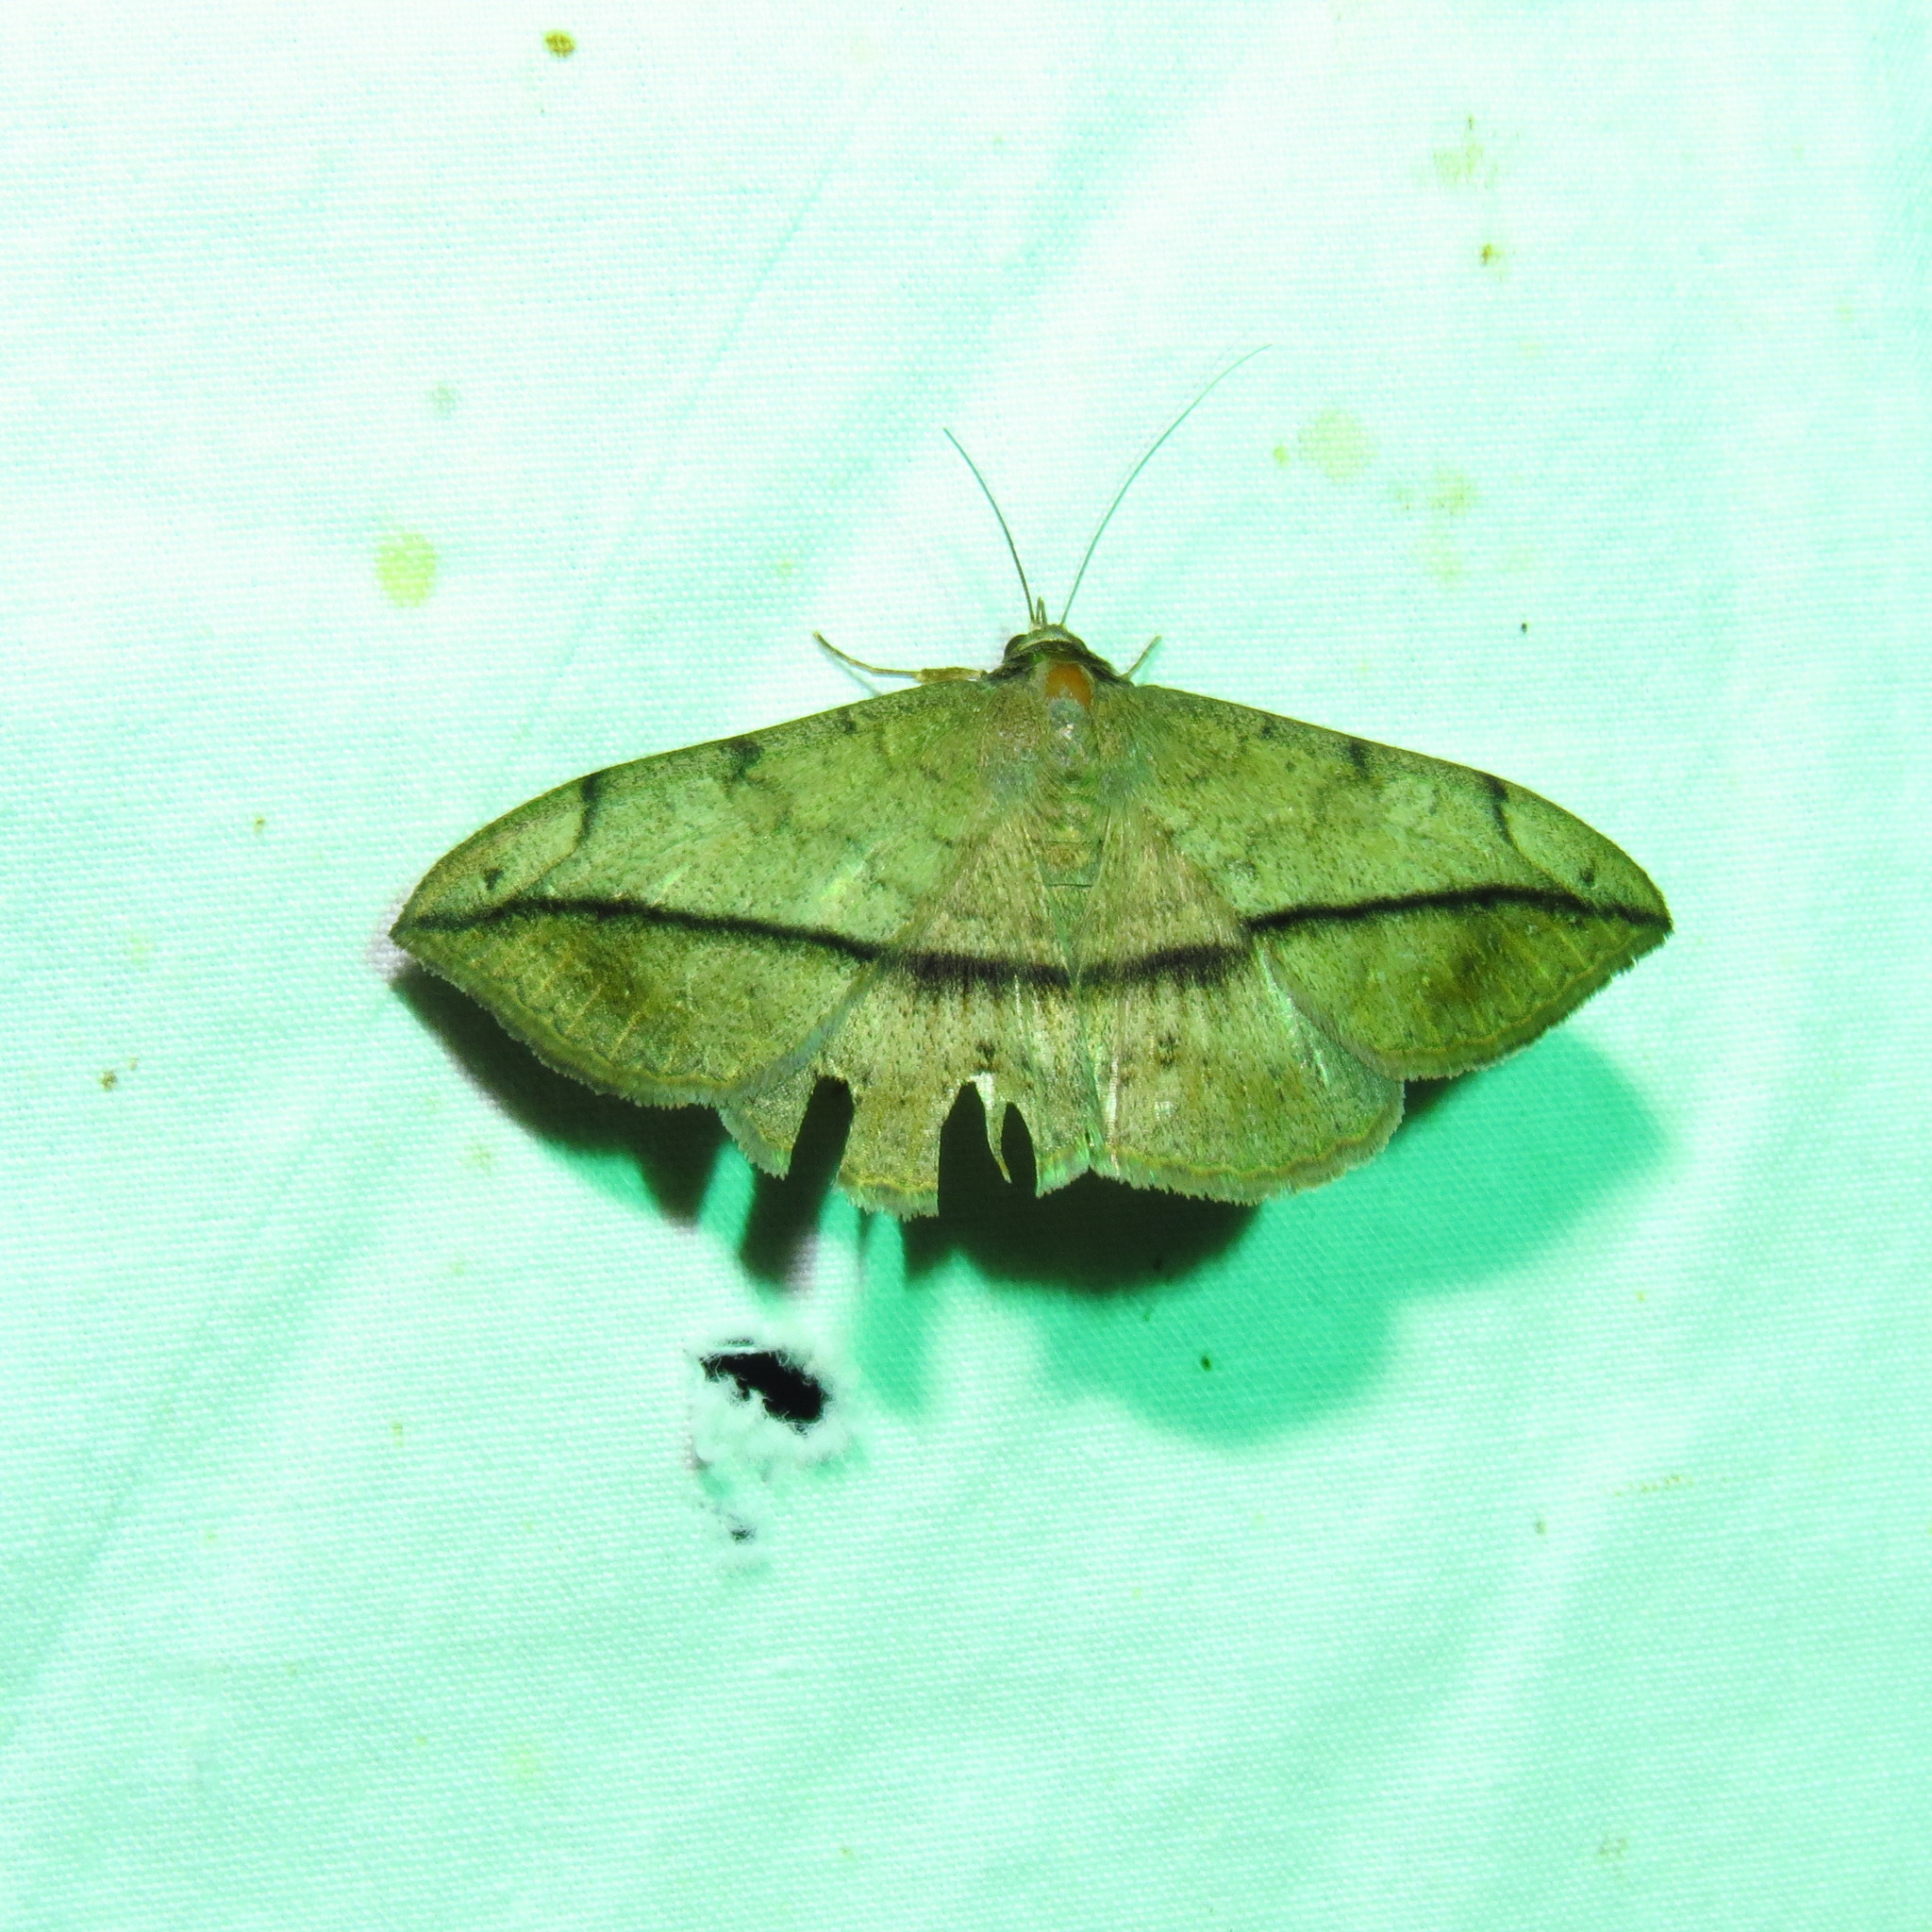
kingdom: Animalia
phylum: Arthropoda
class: Insecta
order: Lepidoptera
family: Erebidae
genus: Anticarsia
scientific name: Anticarsia gemmatalis
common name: Cutworm moth
